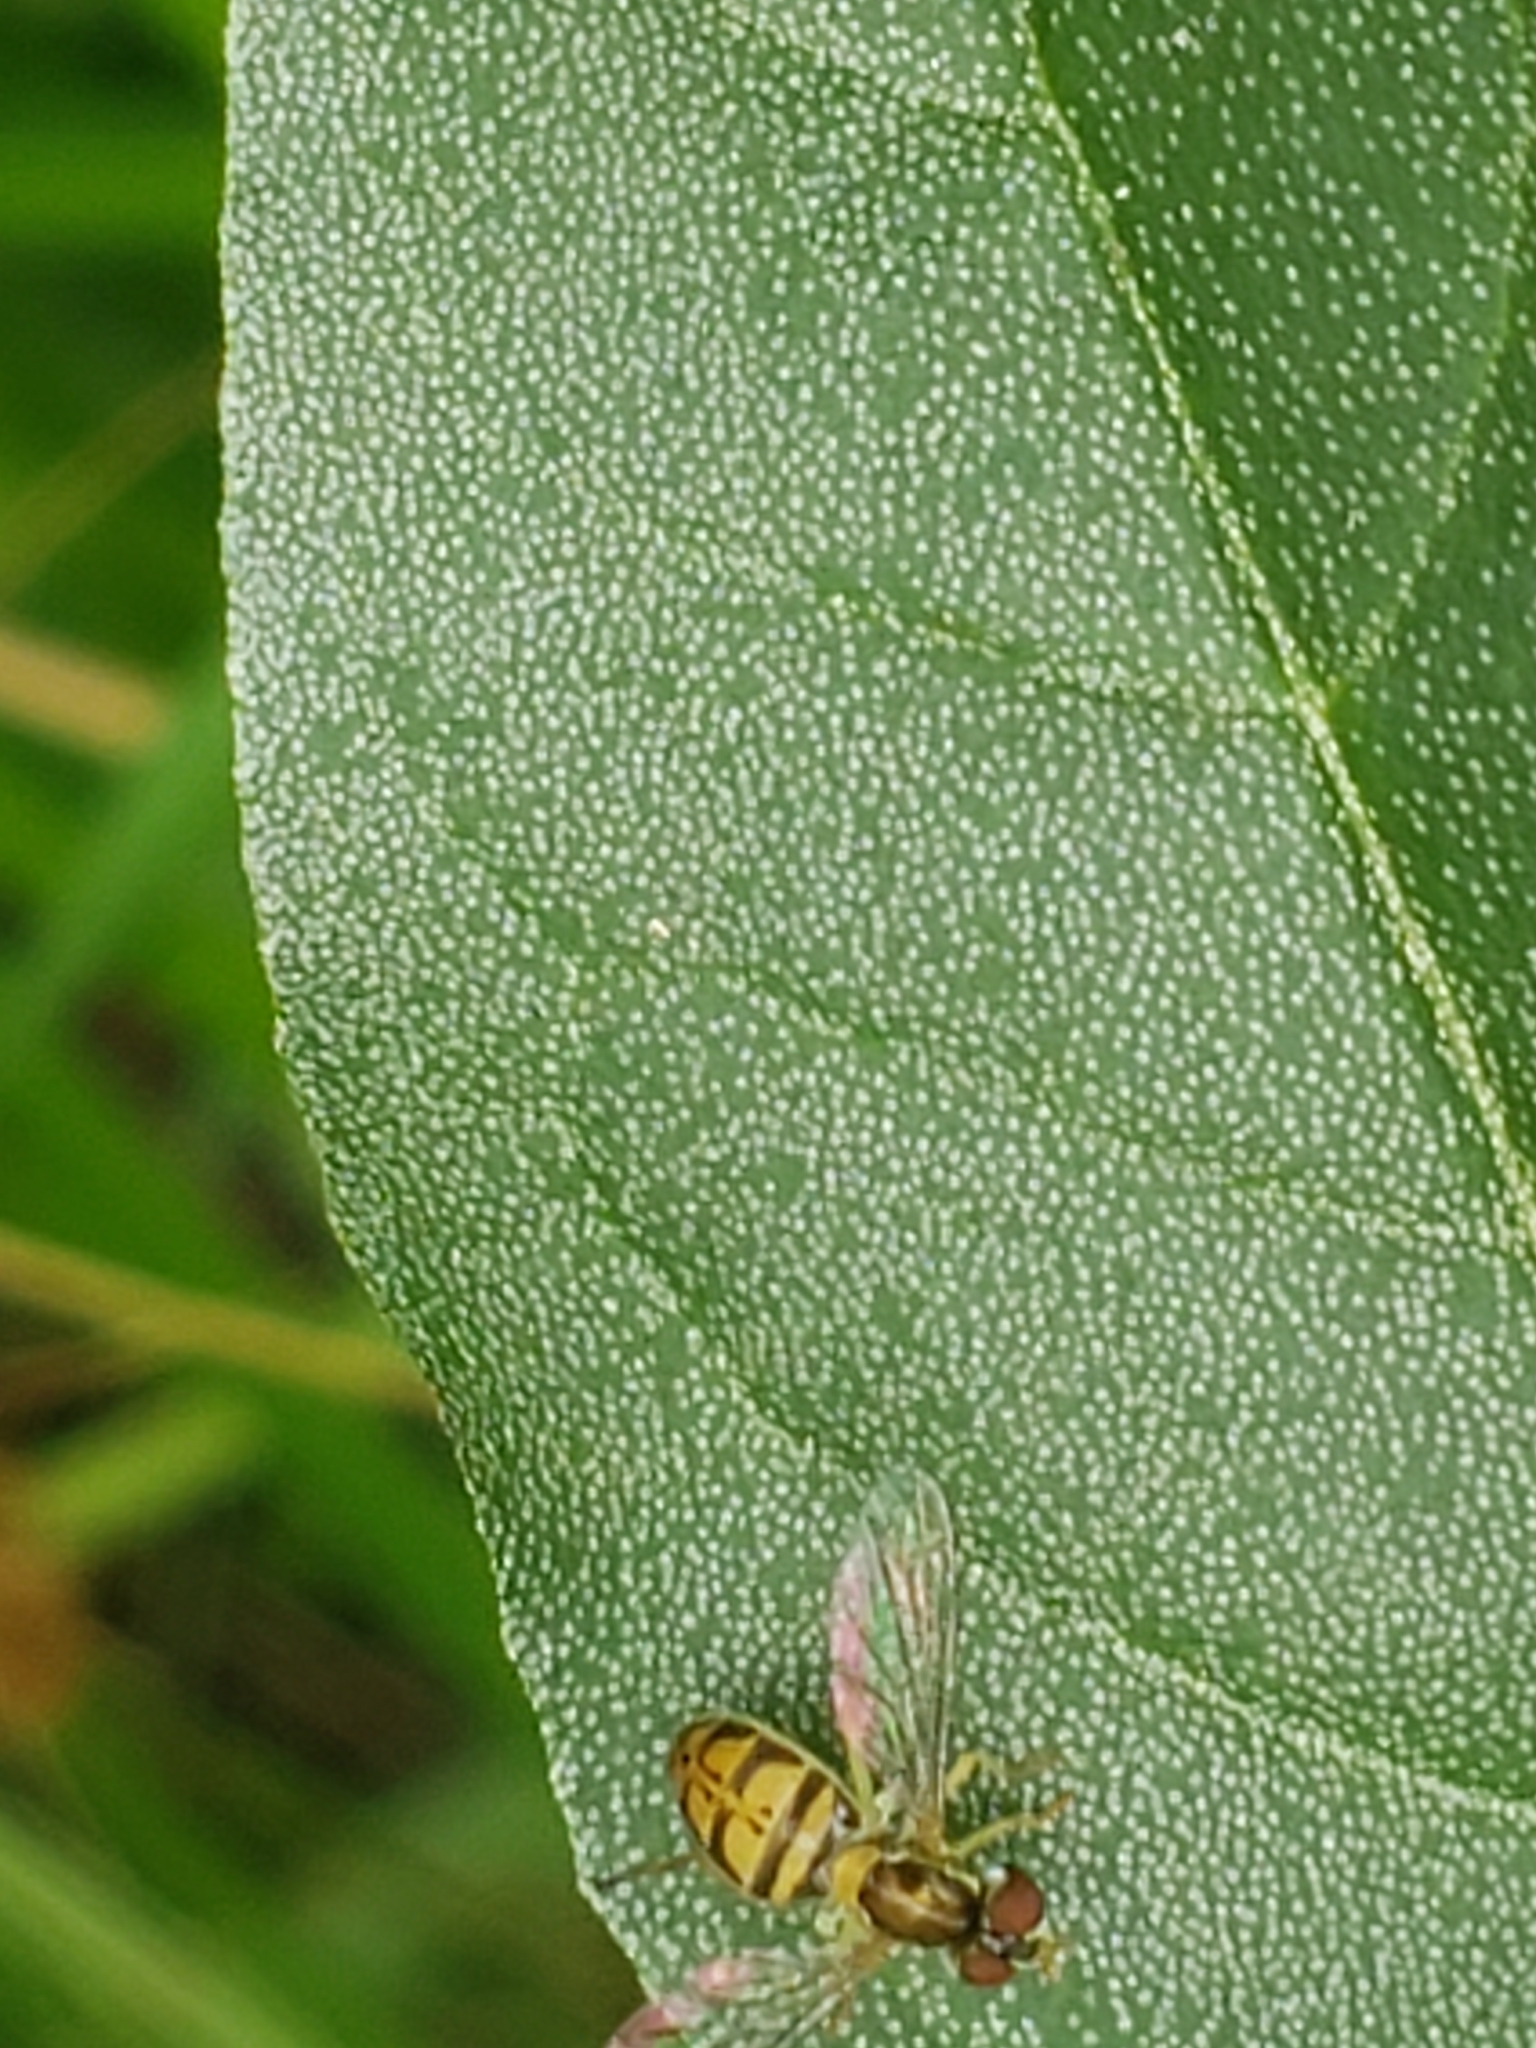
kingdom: Animalia
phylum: Arthropoda
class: Insecta
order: Diptera
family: Syrphidae
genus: Toxomerus
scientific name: Toxomerus marginatus
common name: Syrphid fly
